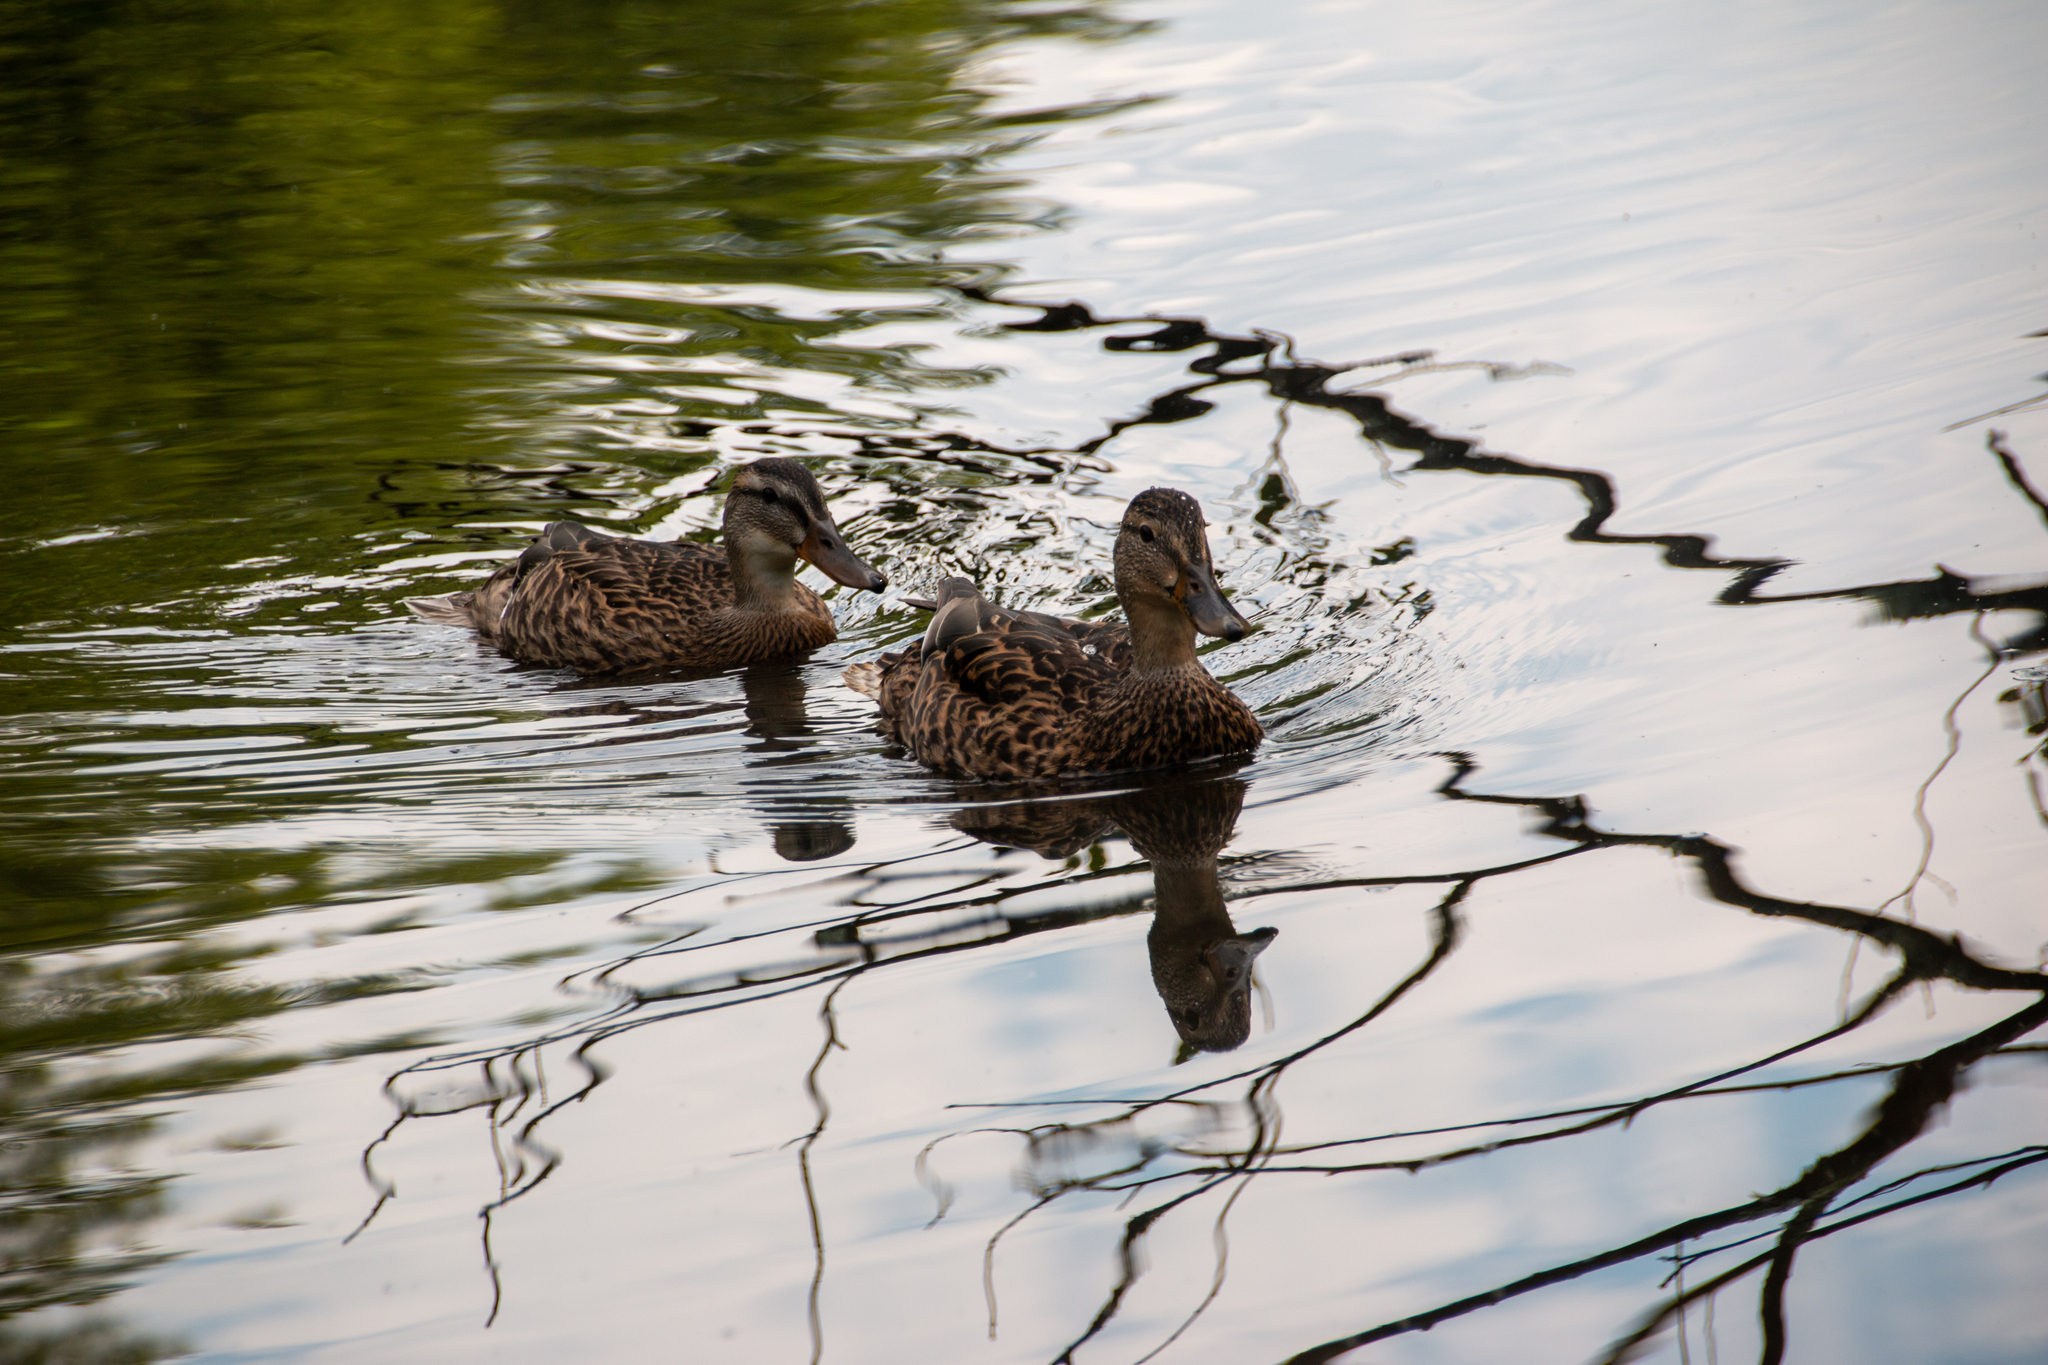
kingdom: Animalia
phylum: Chordata
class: Aves
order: Anseriformes
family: Anatidae
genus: Anas
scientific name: Anas platyrhynchos
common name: Mallard
